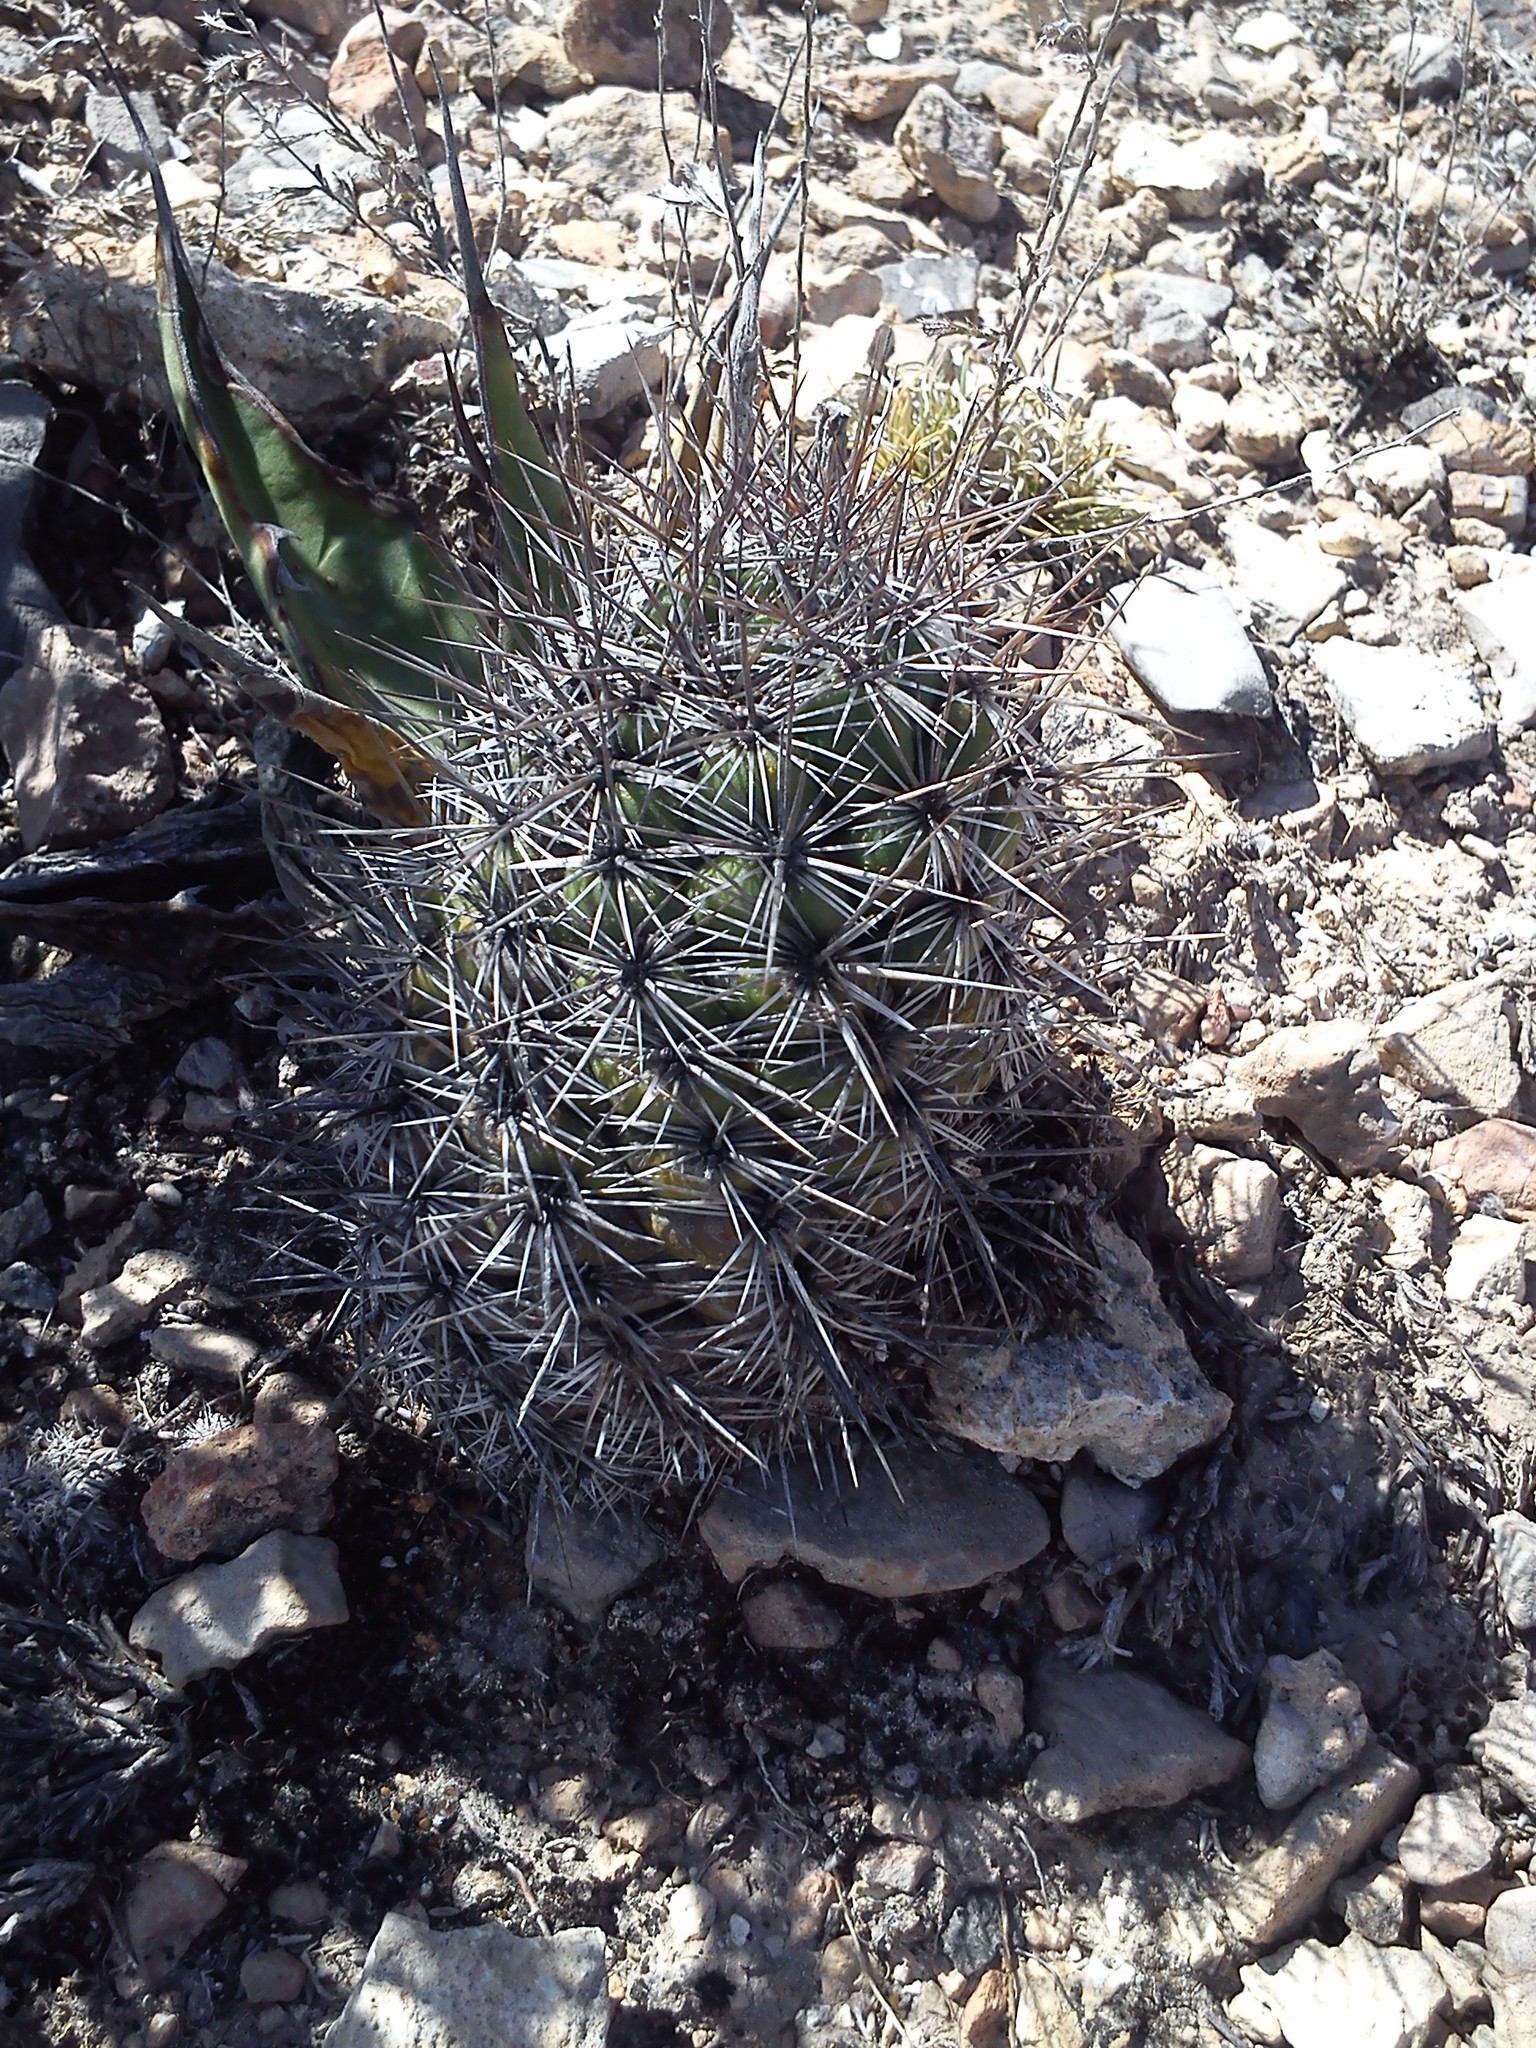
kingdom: Plantae
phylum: Tracheophyta
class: Magnoliopsida
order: Caryophyllales
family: Cactaceae
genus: Cochemiea
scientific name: Cochemiea conoidea
